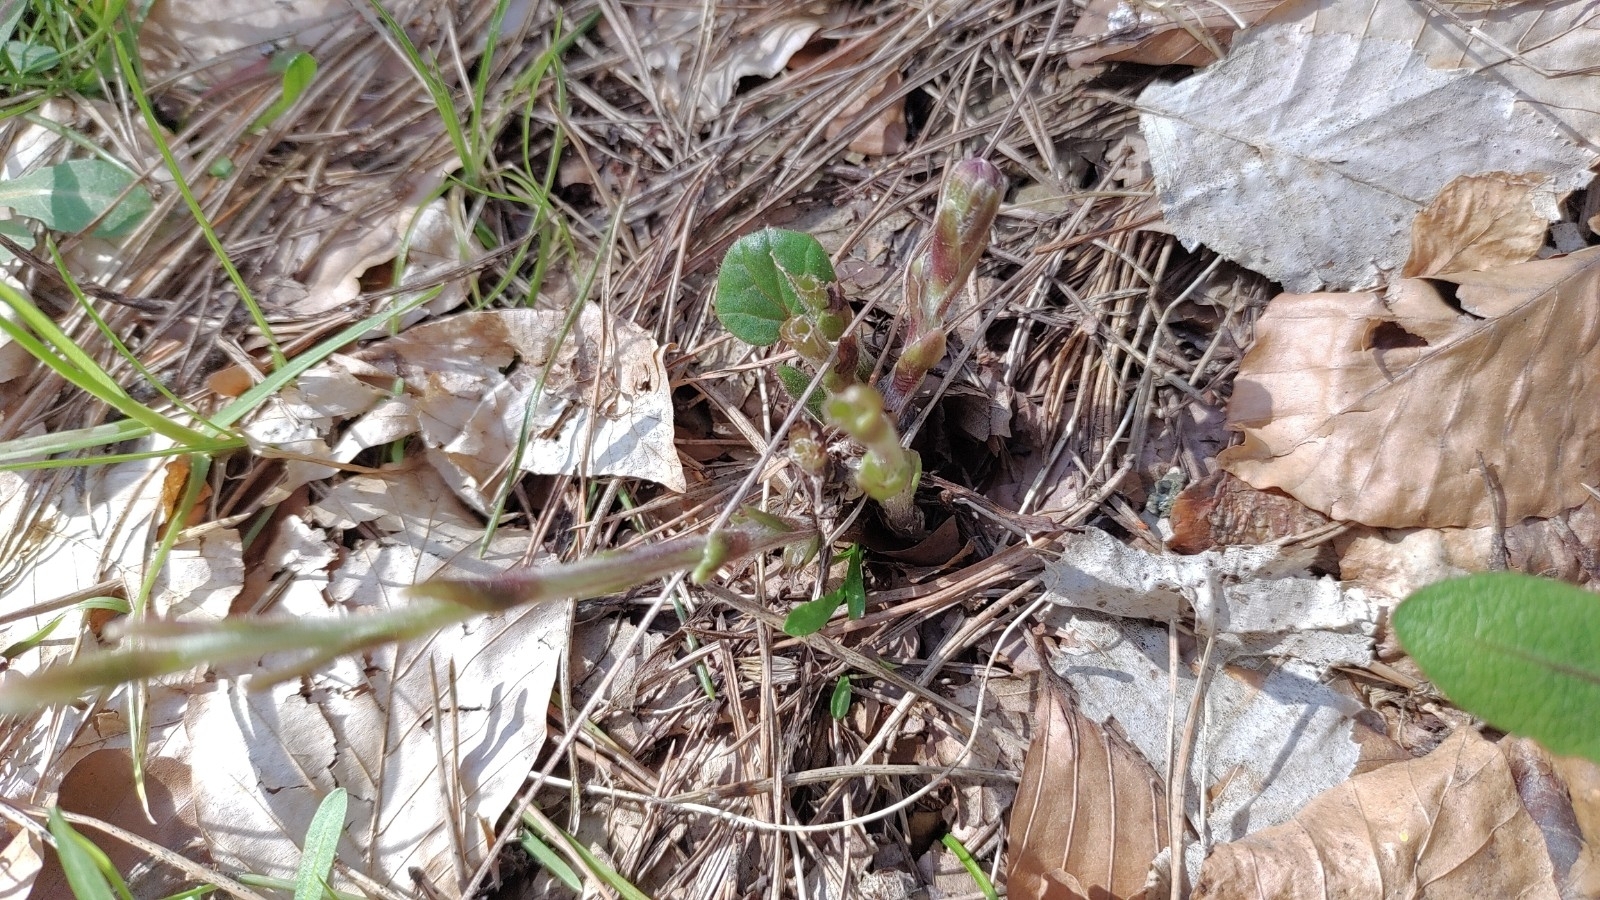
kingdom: Plantae
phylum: Tracheophyta
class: Magnoliopsida
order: Asterales
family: Asteraceae
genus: Tussilago
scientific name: Tussilago farfara
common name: Coltsfoot
